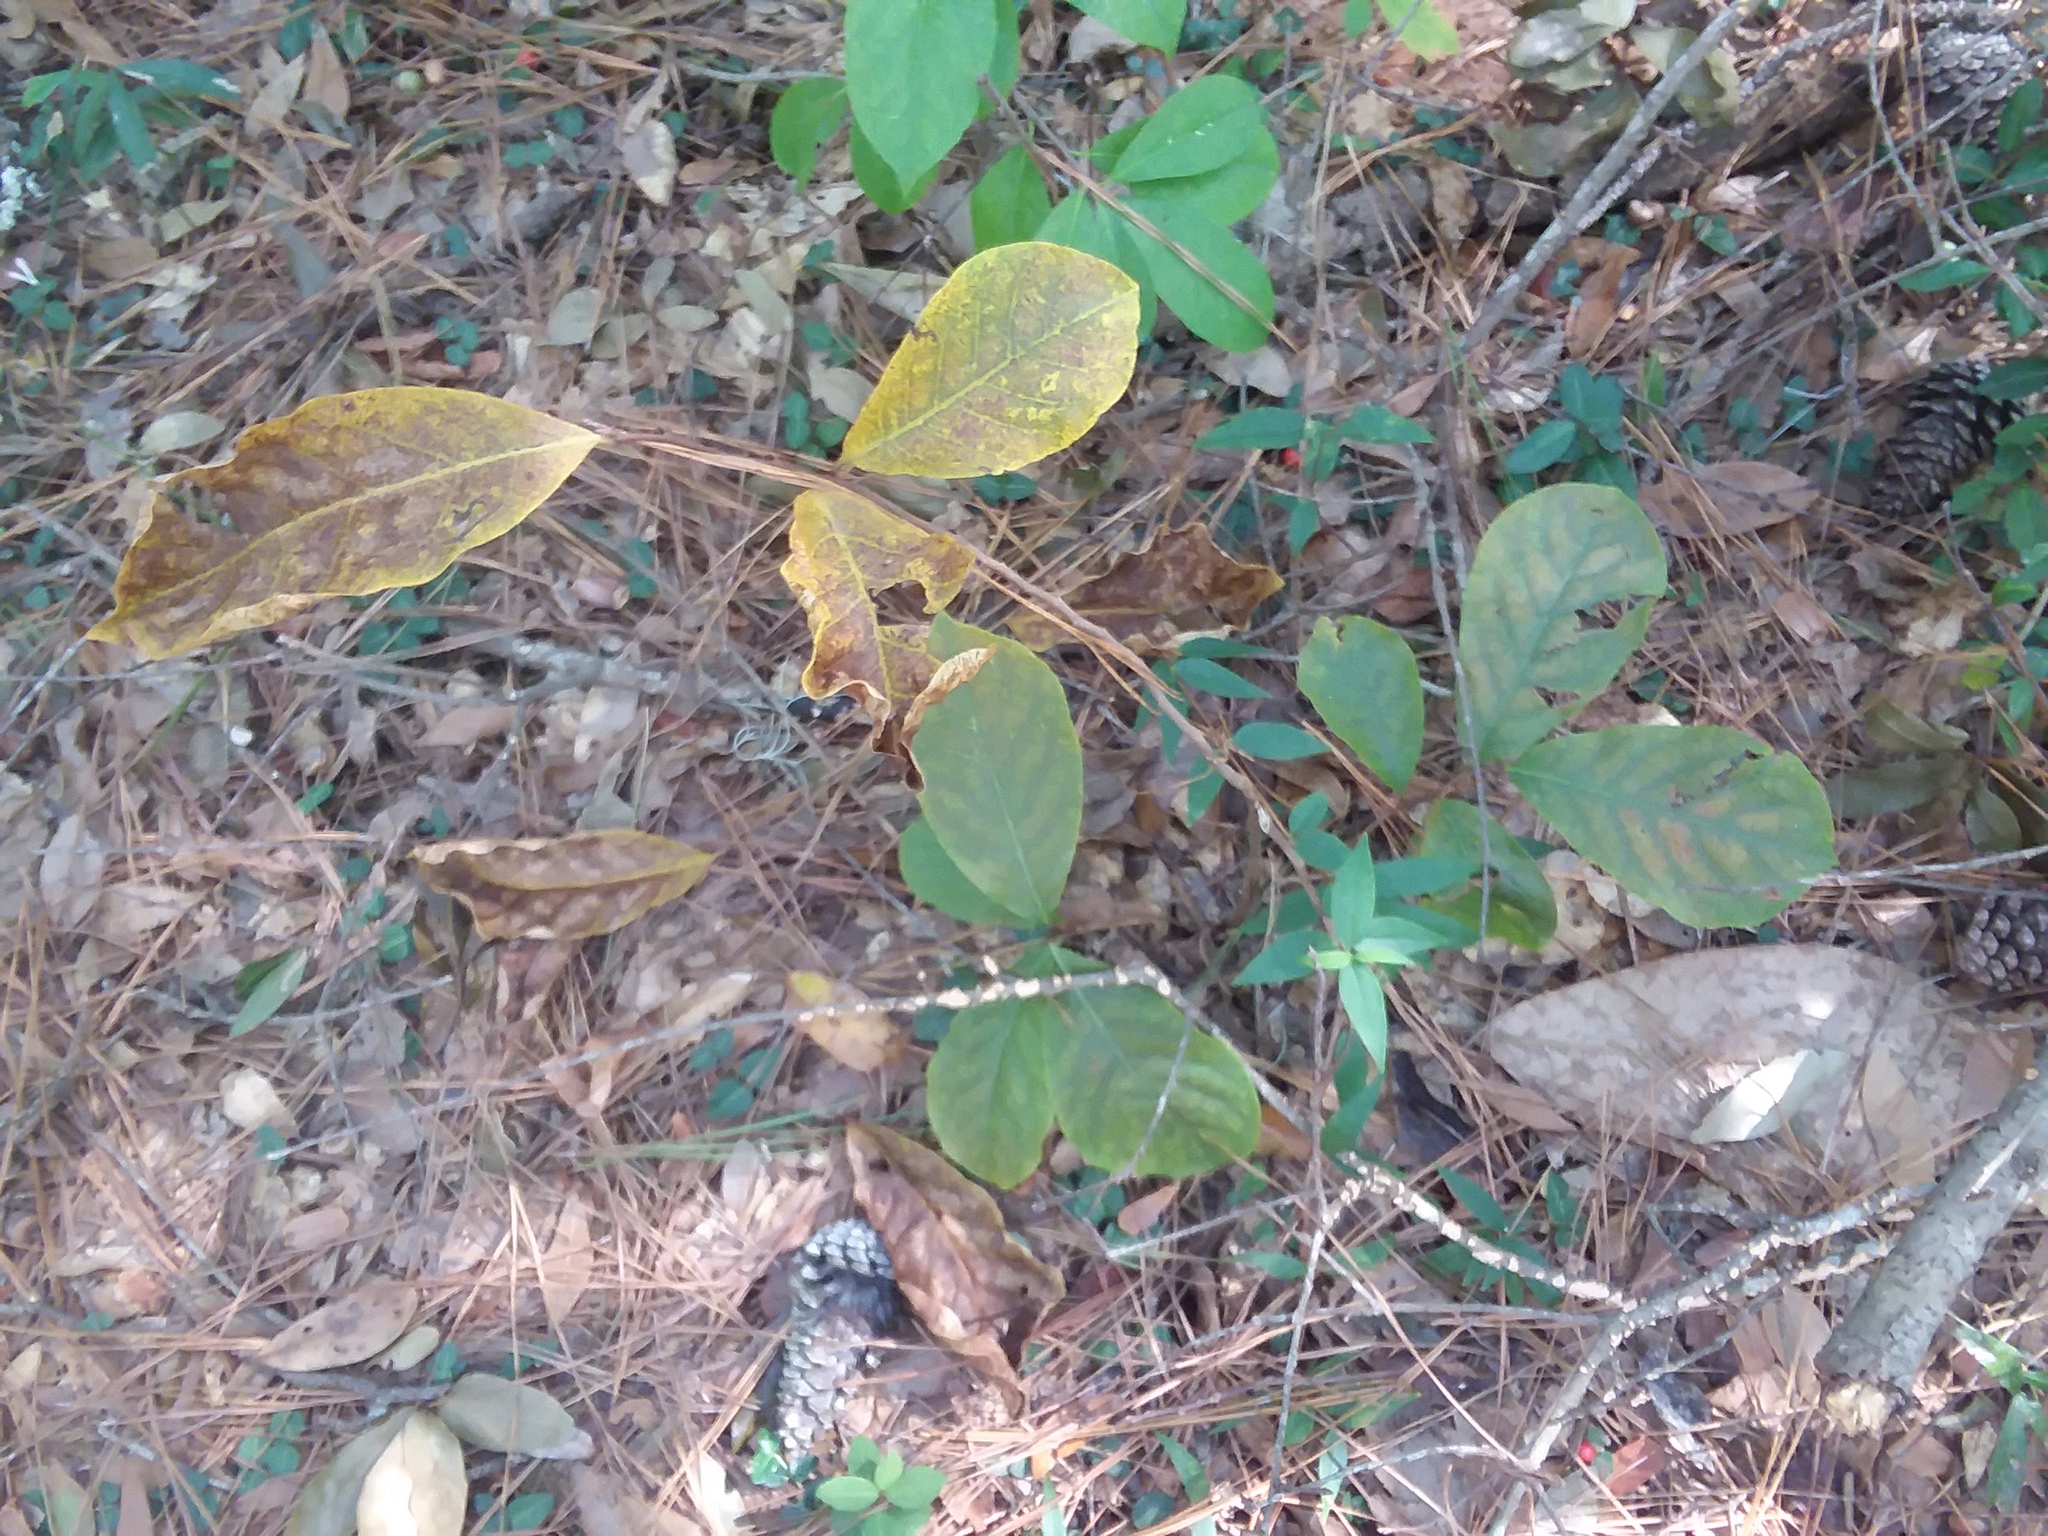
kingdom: Plantae
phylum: Tracheophyta
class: Magnoliopsida
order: Magnoliales
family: Annonaceae
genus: Asimina
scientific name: Asimina parviflora
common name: Dwarf pawpaw
